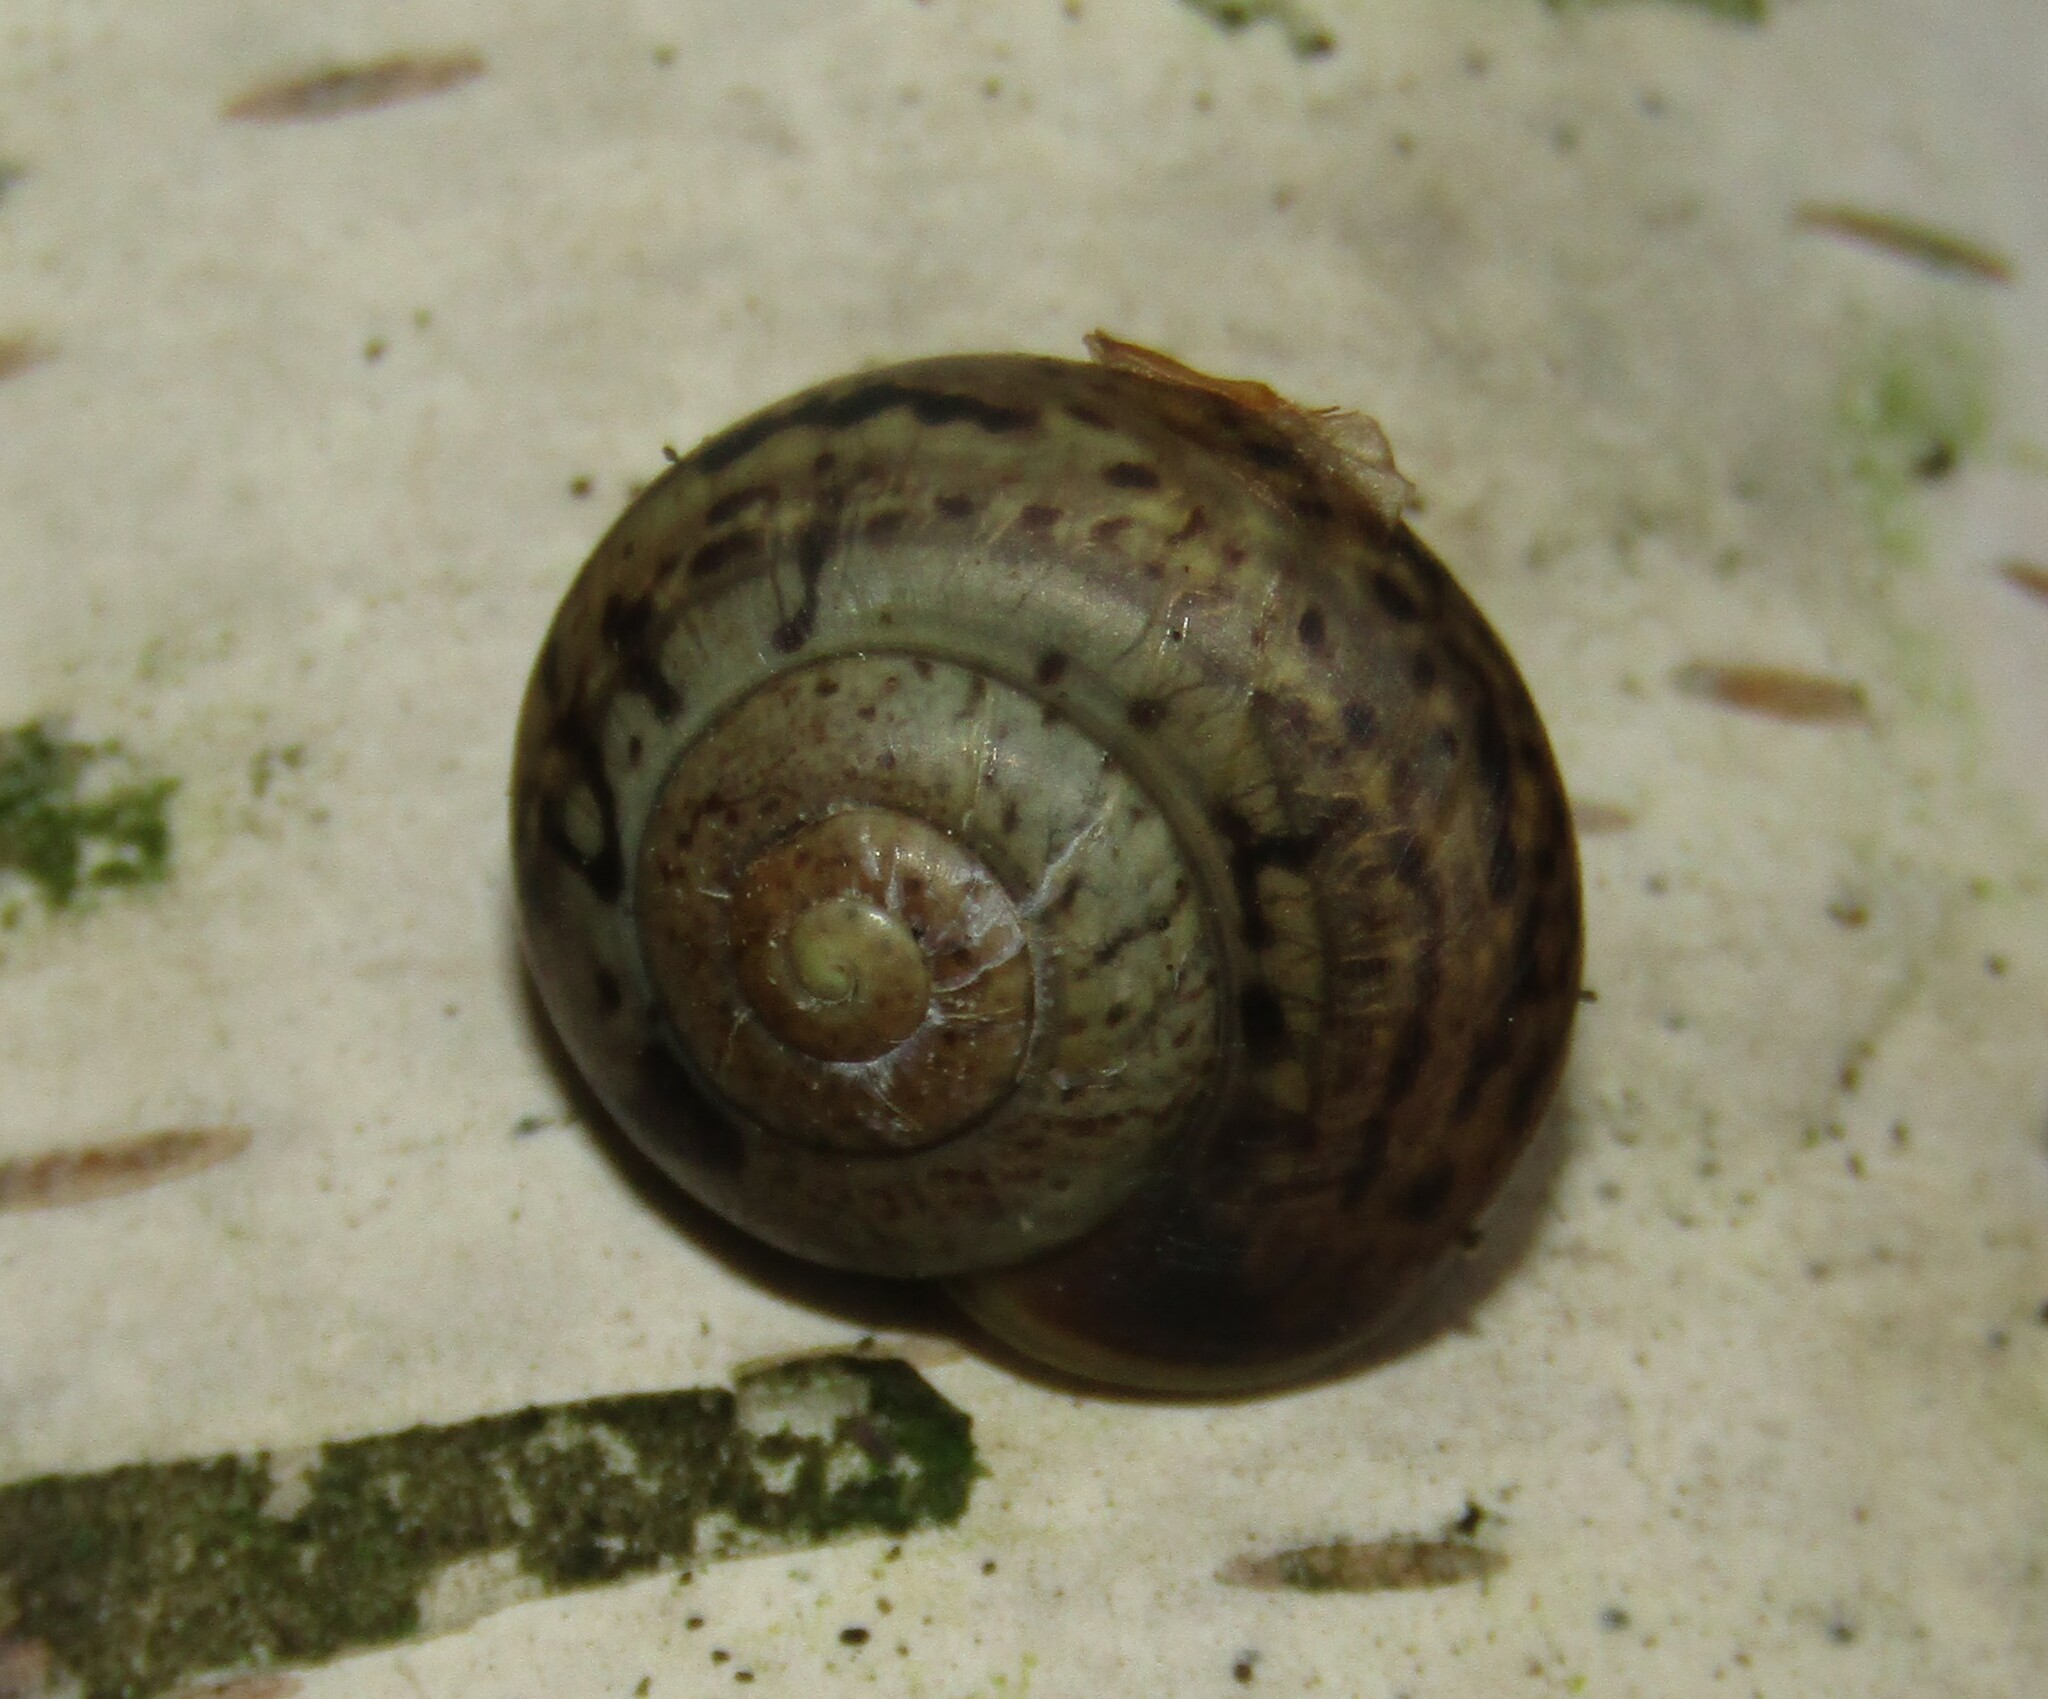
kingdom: Animalia
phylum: Mollusca
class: Gastropoda
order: Stylommatophora
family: Camaenidae
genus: Fruticicola
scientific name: Fruticicola fruticum
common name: Bush snail
